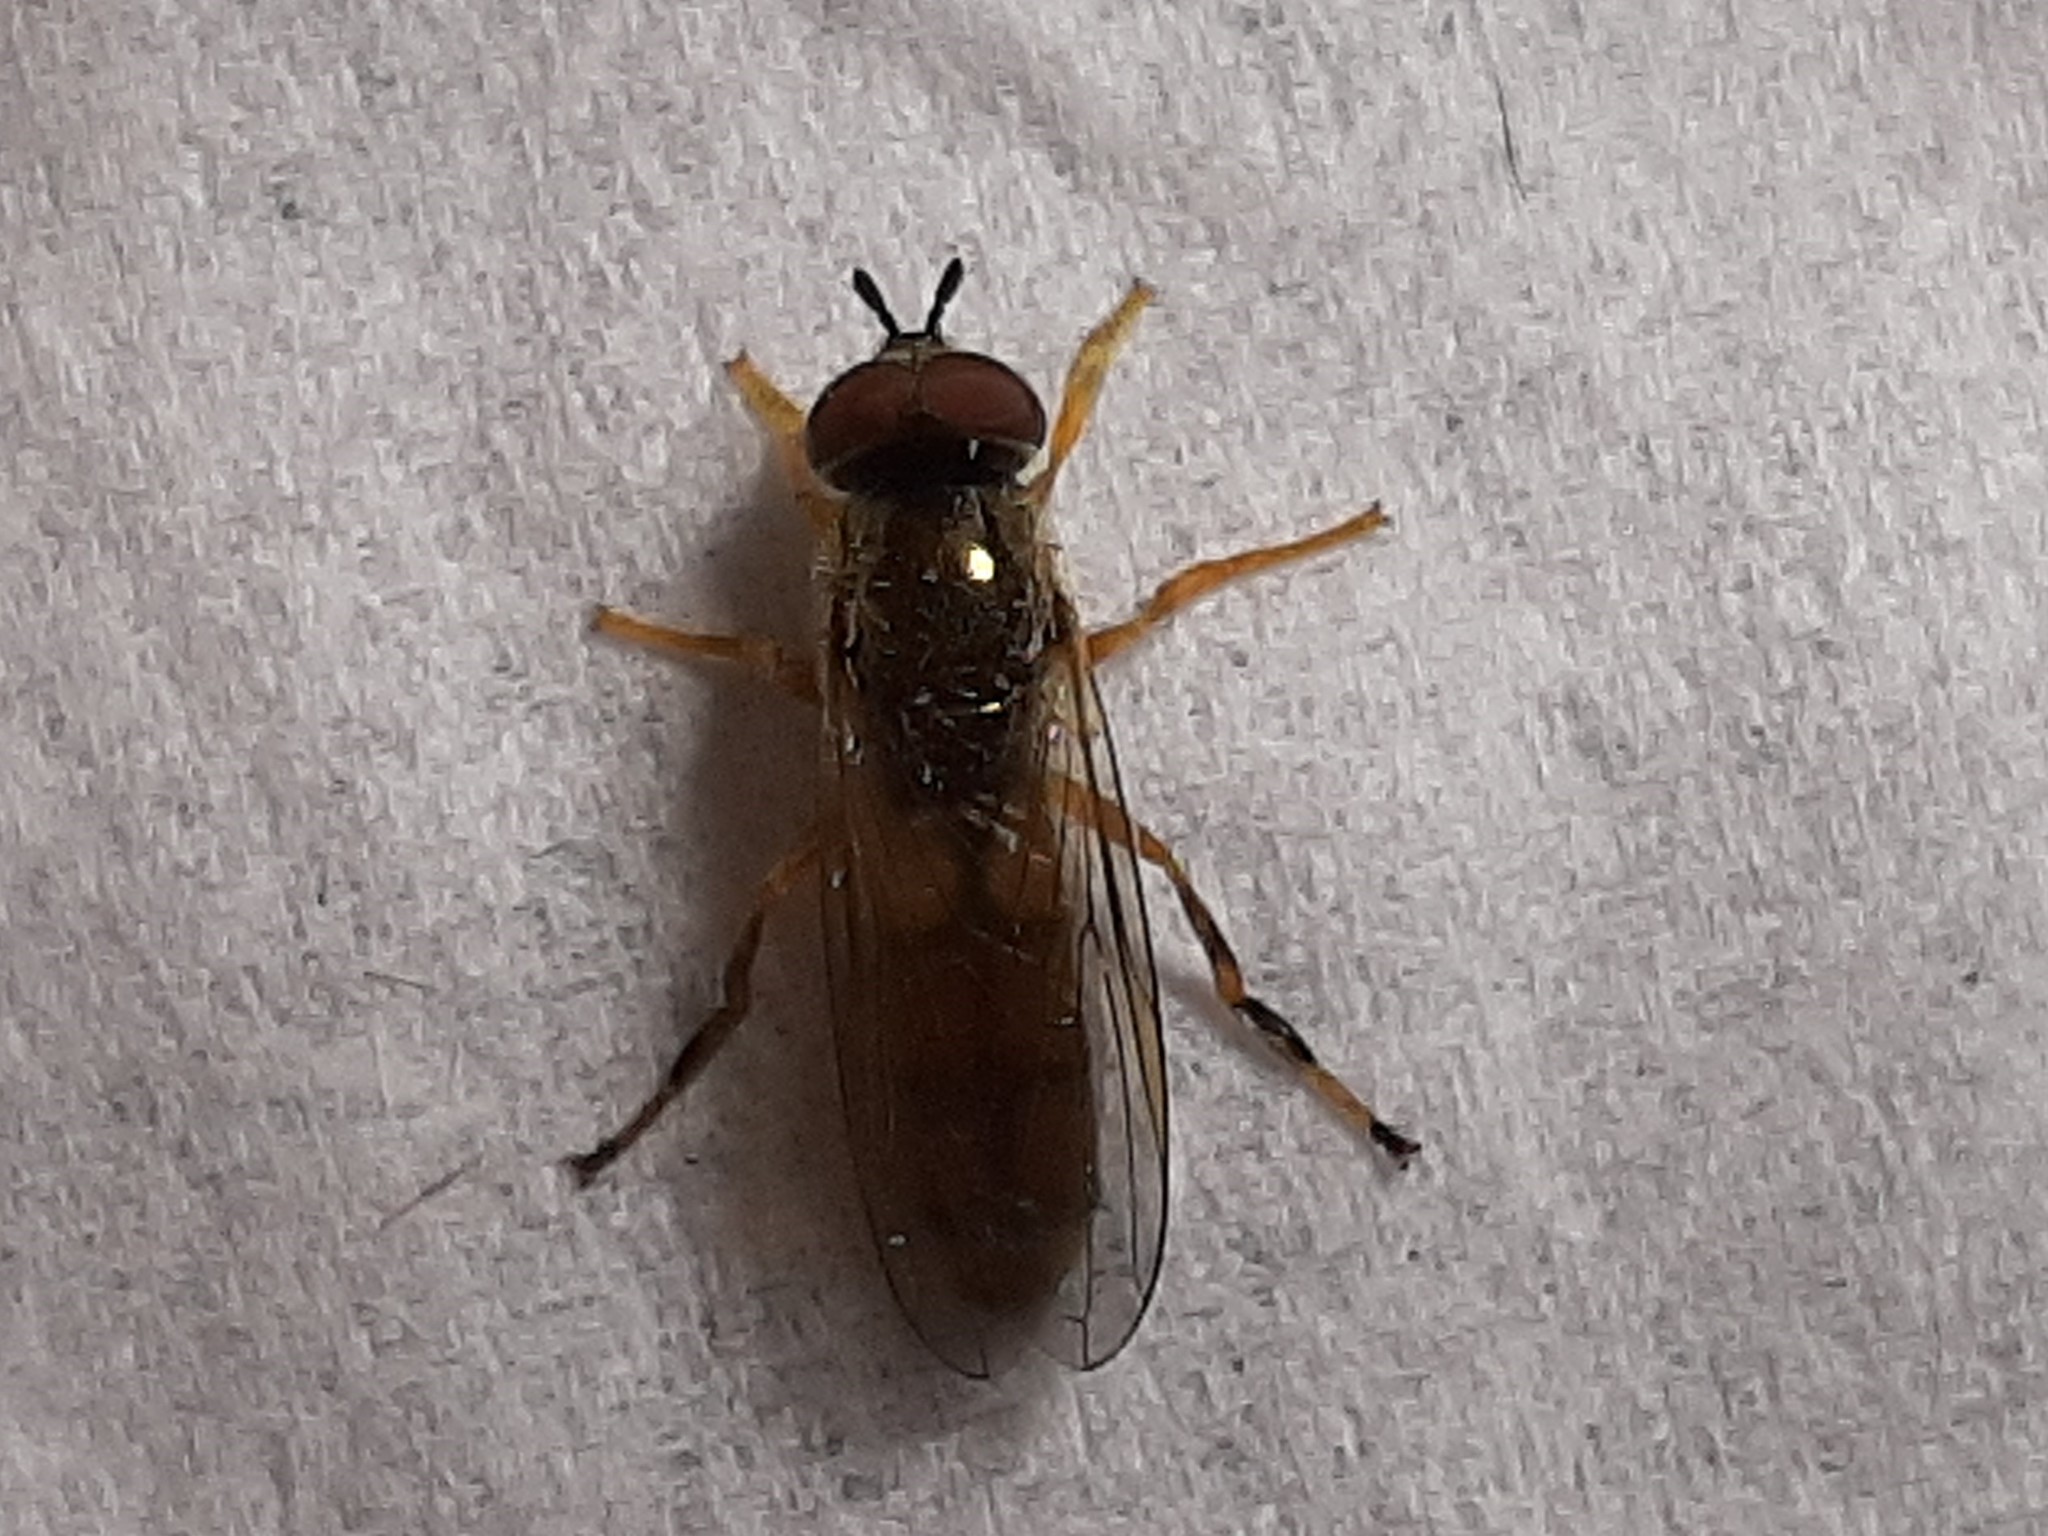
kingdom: Animalia
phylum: Arthropoda
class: Insecta
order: Diptera
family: Syrphidae
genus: Platycheirus
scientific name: Platycheirus quadratus
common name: Meadow sedgesitter
